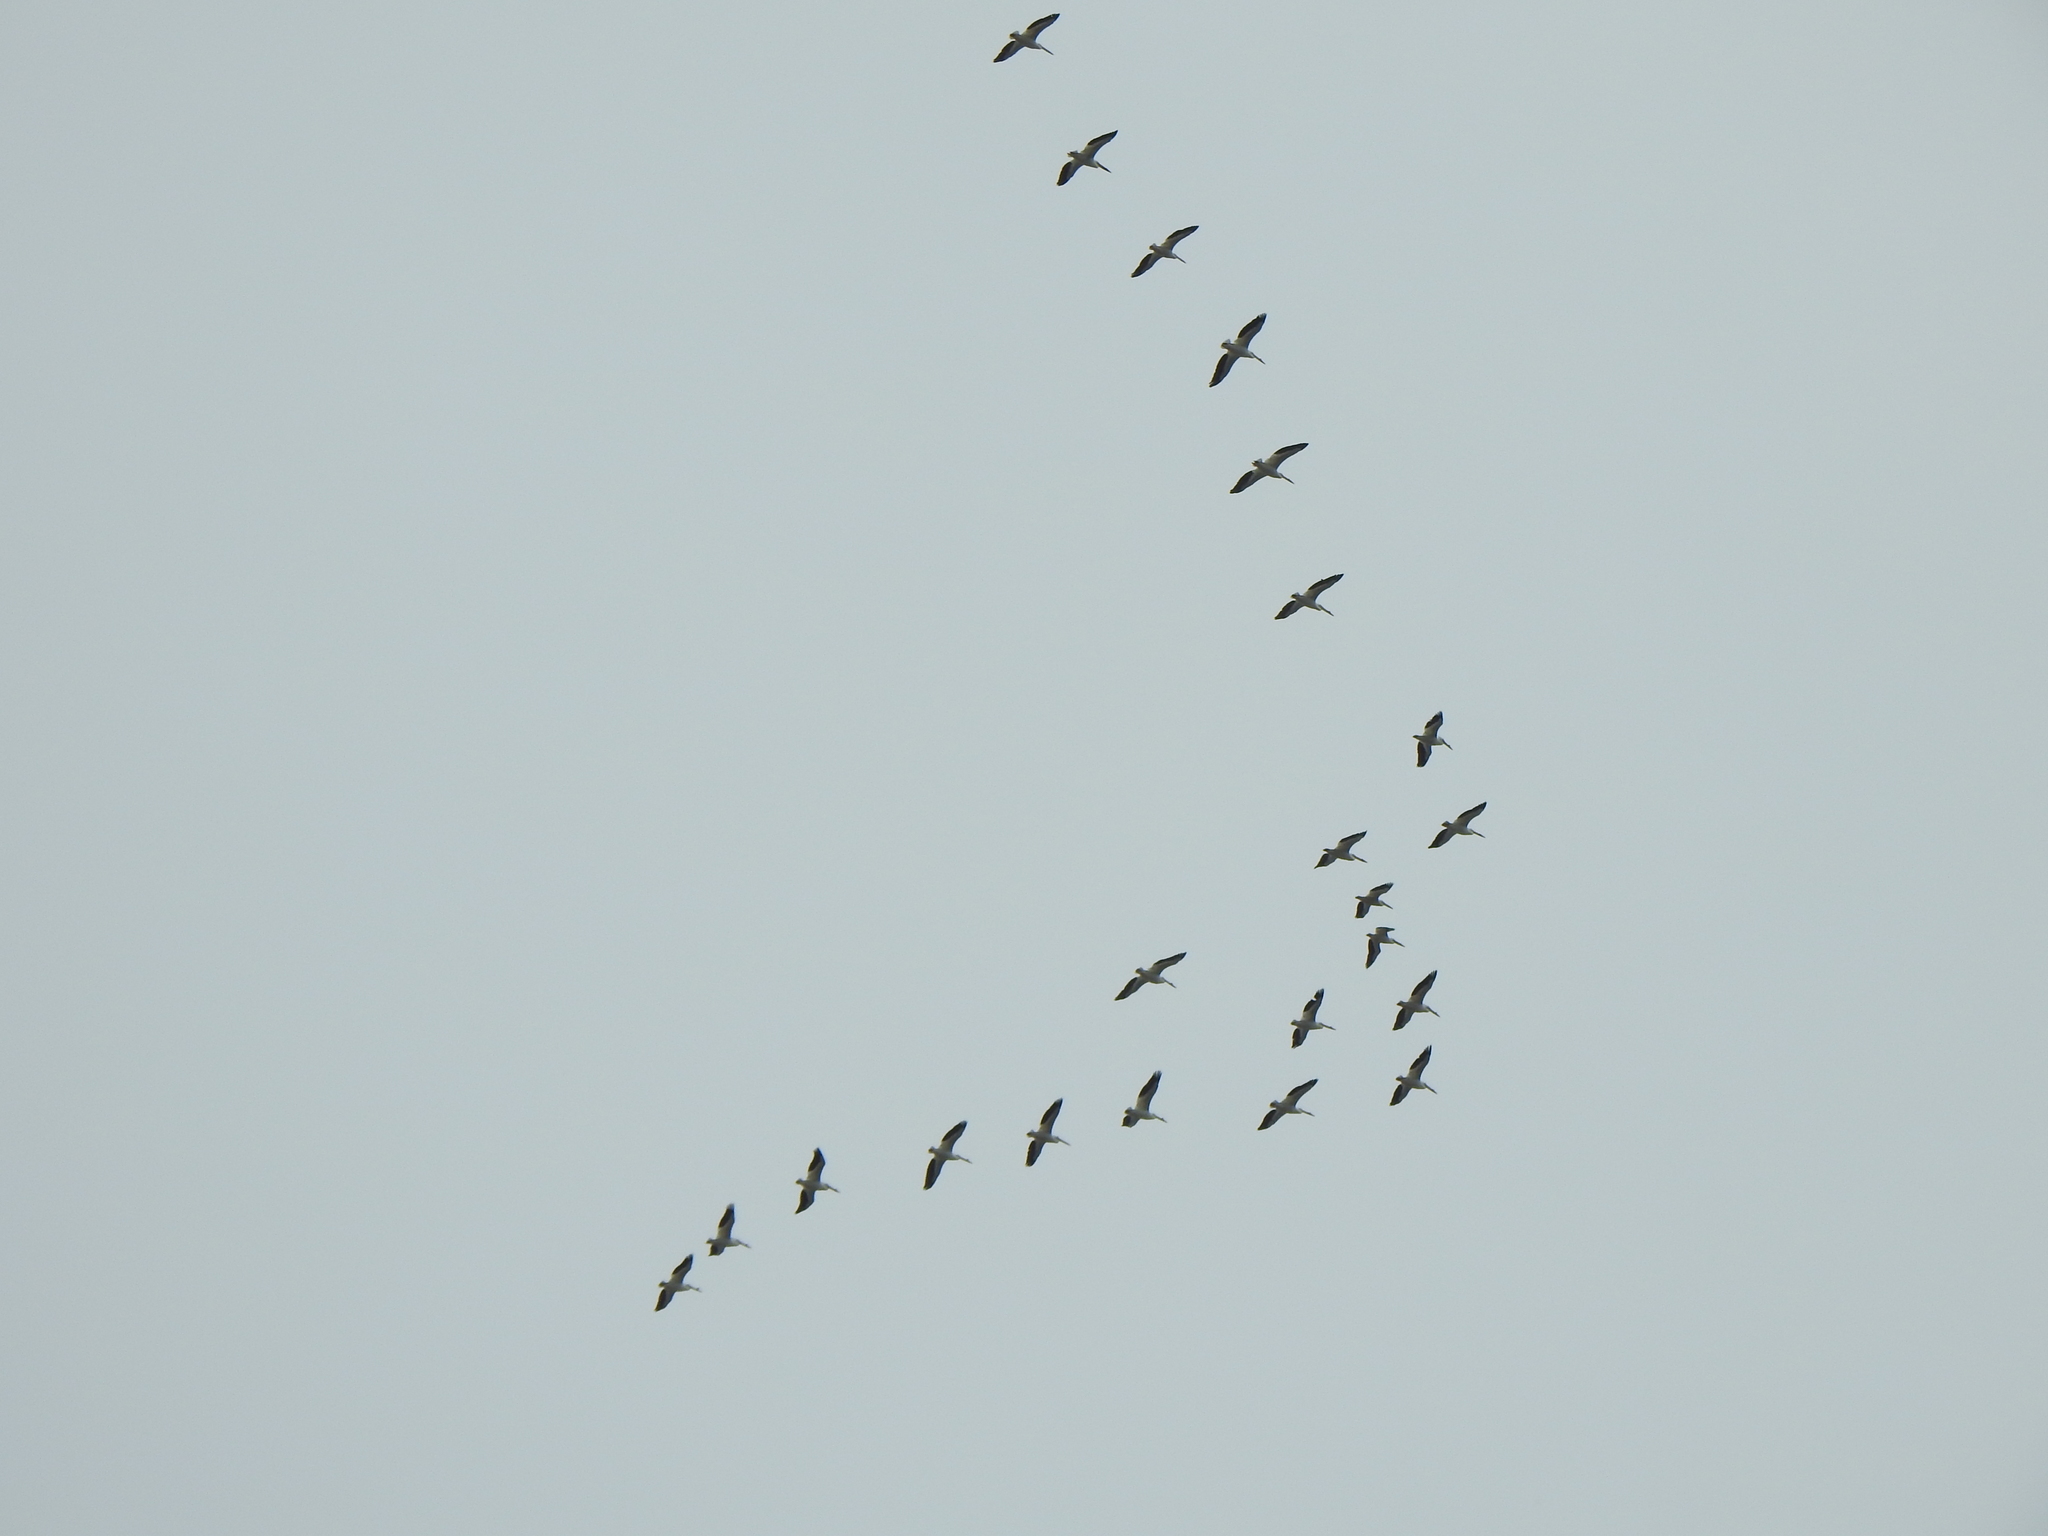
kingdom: Animalia
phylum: Chordata
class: Aves
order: Pelecaniformes
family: Pelecanidae
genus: Pelecanus
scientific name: Pelecanus erythrorhynchos
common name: American white pelican
